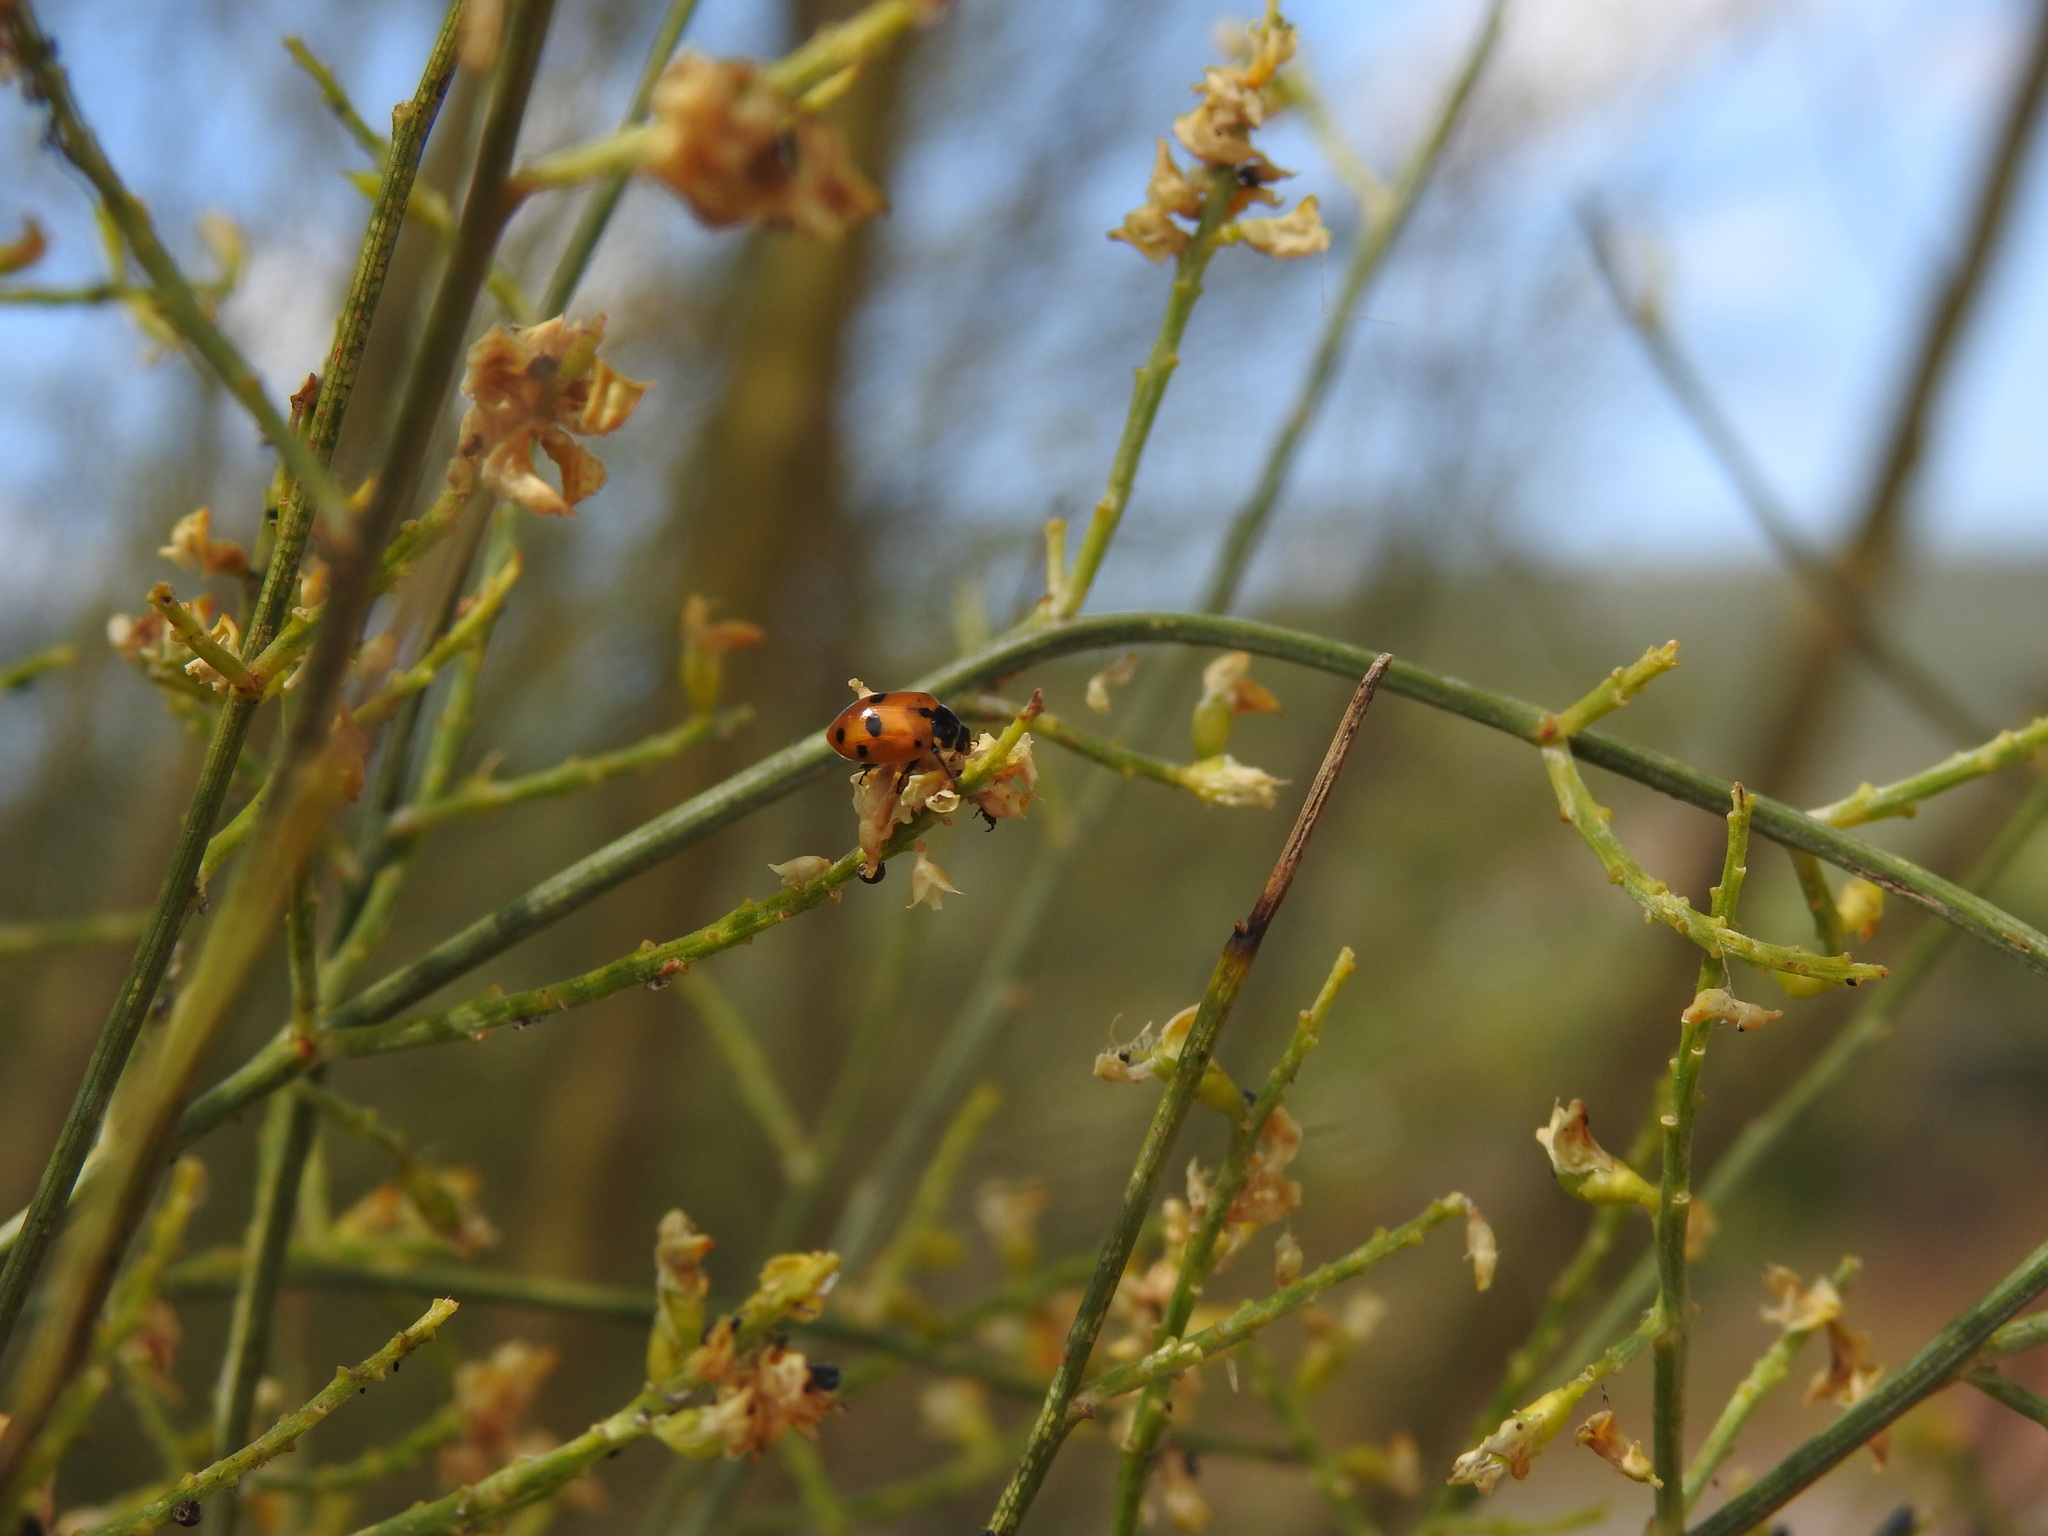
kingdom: Animalia
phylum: Arthropoda
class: Insecta
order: Coleoptera
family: Coccinellidae
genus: Hippodamia
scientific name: Hippodamia variegata
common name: Ladybird beetle
